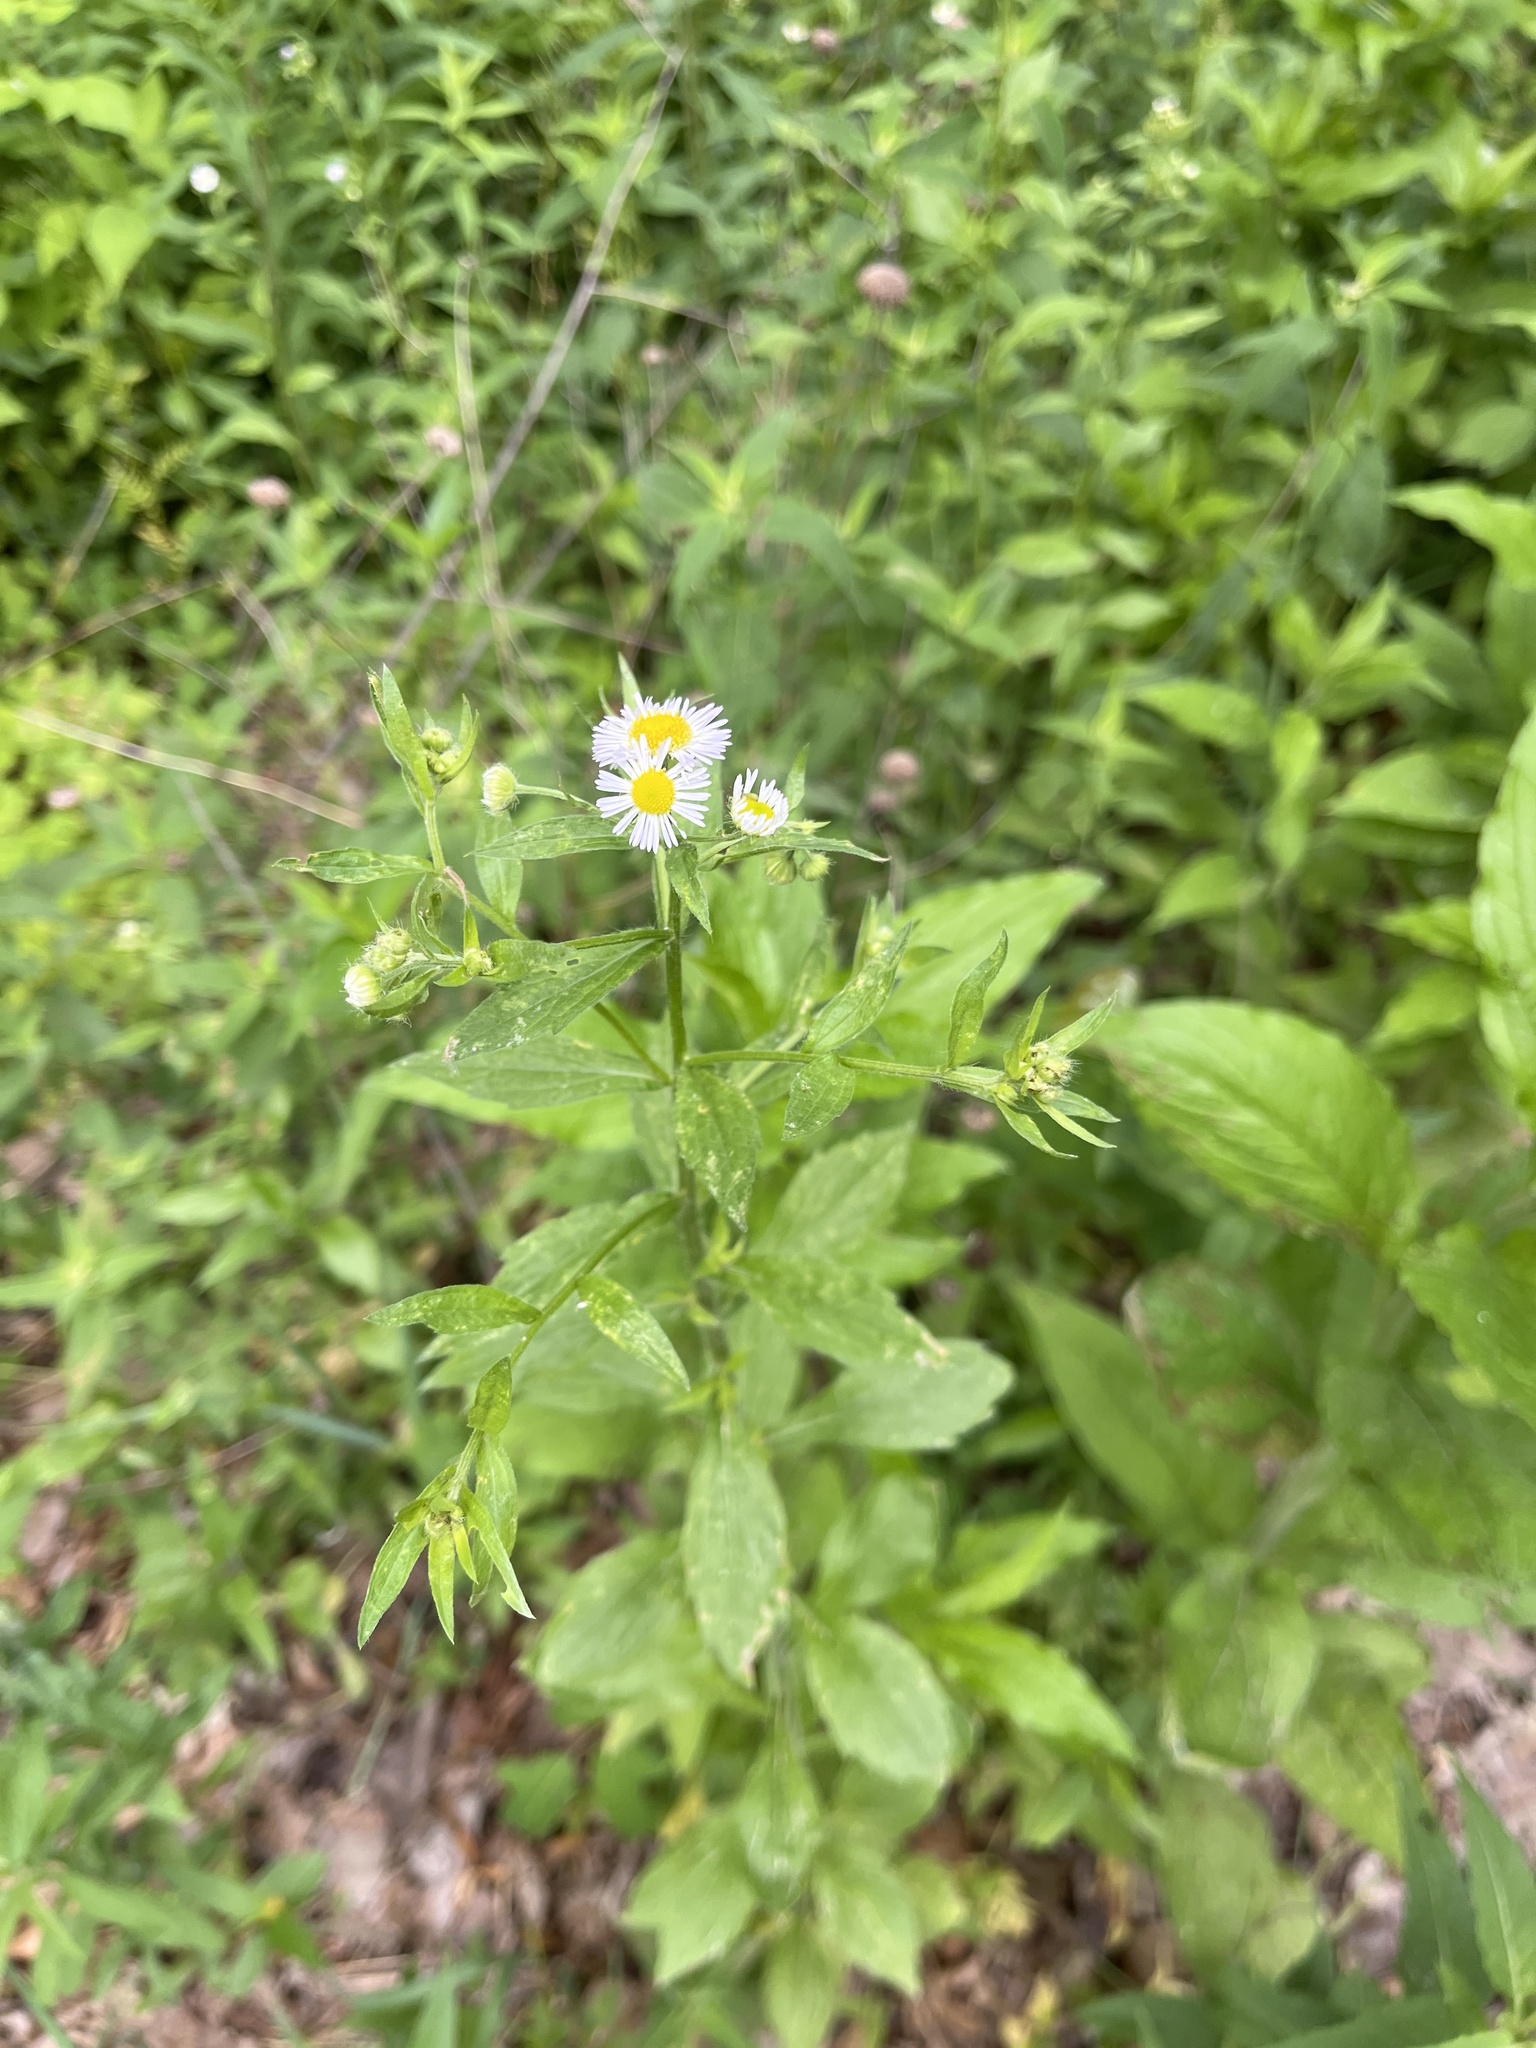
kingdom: Plantae
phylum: Tracheophyta
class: Magnoliopsida
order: Asterales
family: Asteraceae
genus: Erigeron
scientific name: Erigeron annuus
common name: Tall fleabane
